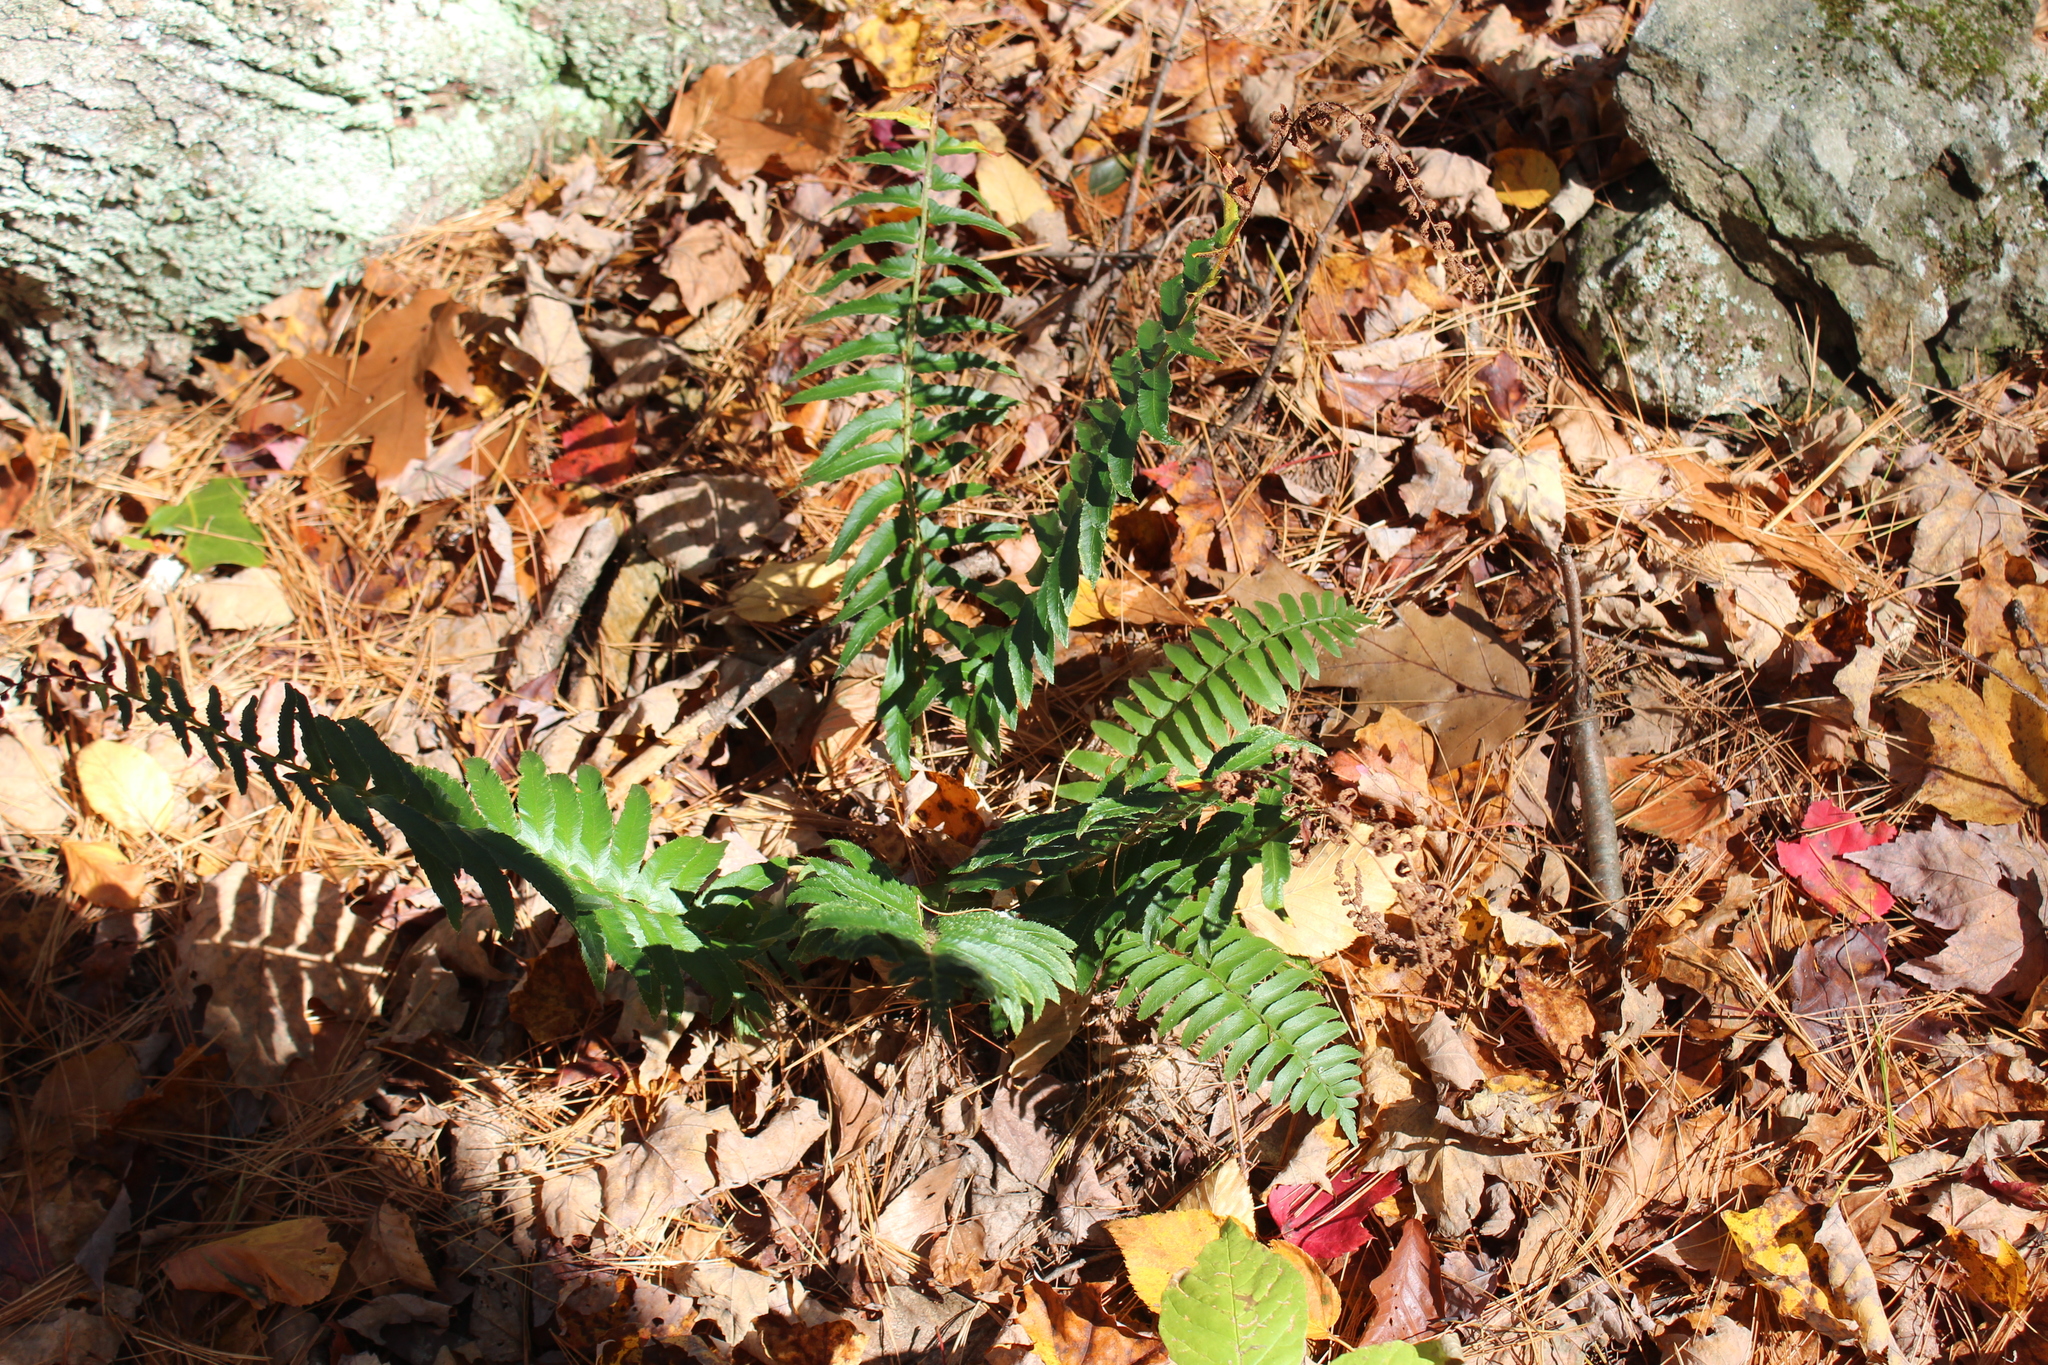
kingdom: Plantae
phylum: Tracheophyta
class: Polypodiopsida
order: Polypodiales
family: Dryopteridaceae
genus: Polystichum
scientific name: Polystichum acrostichoides
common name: Christmas fern
